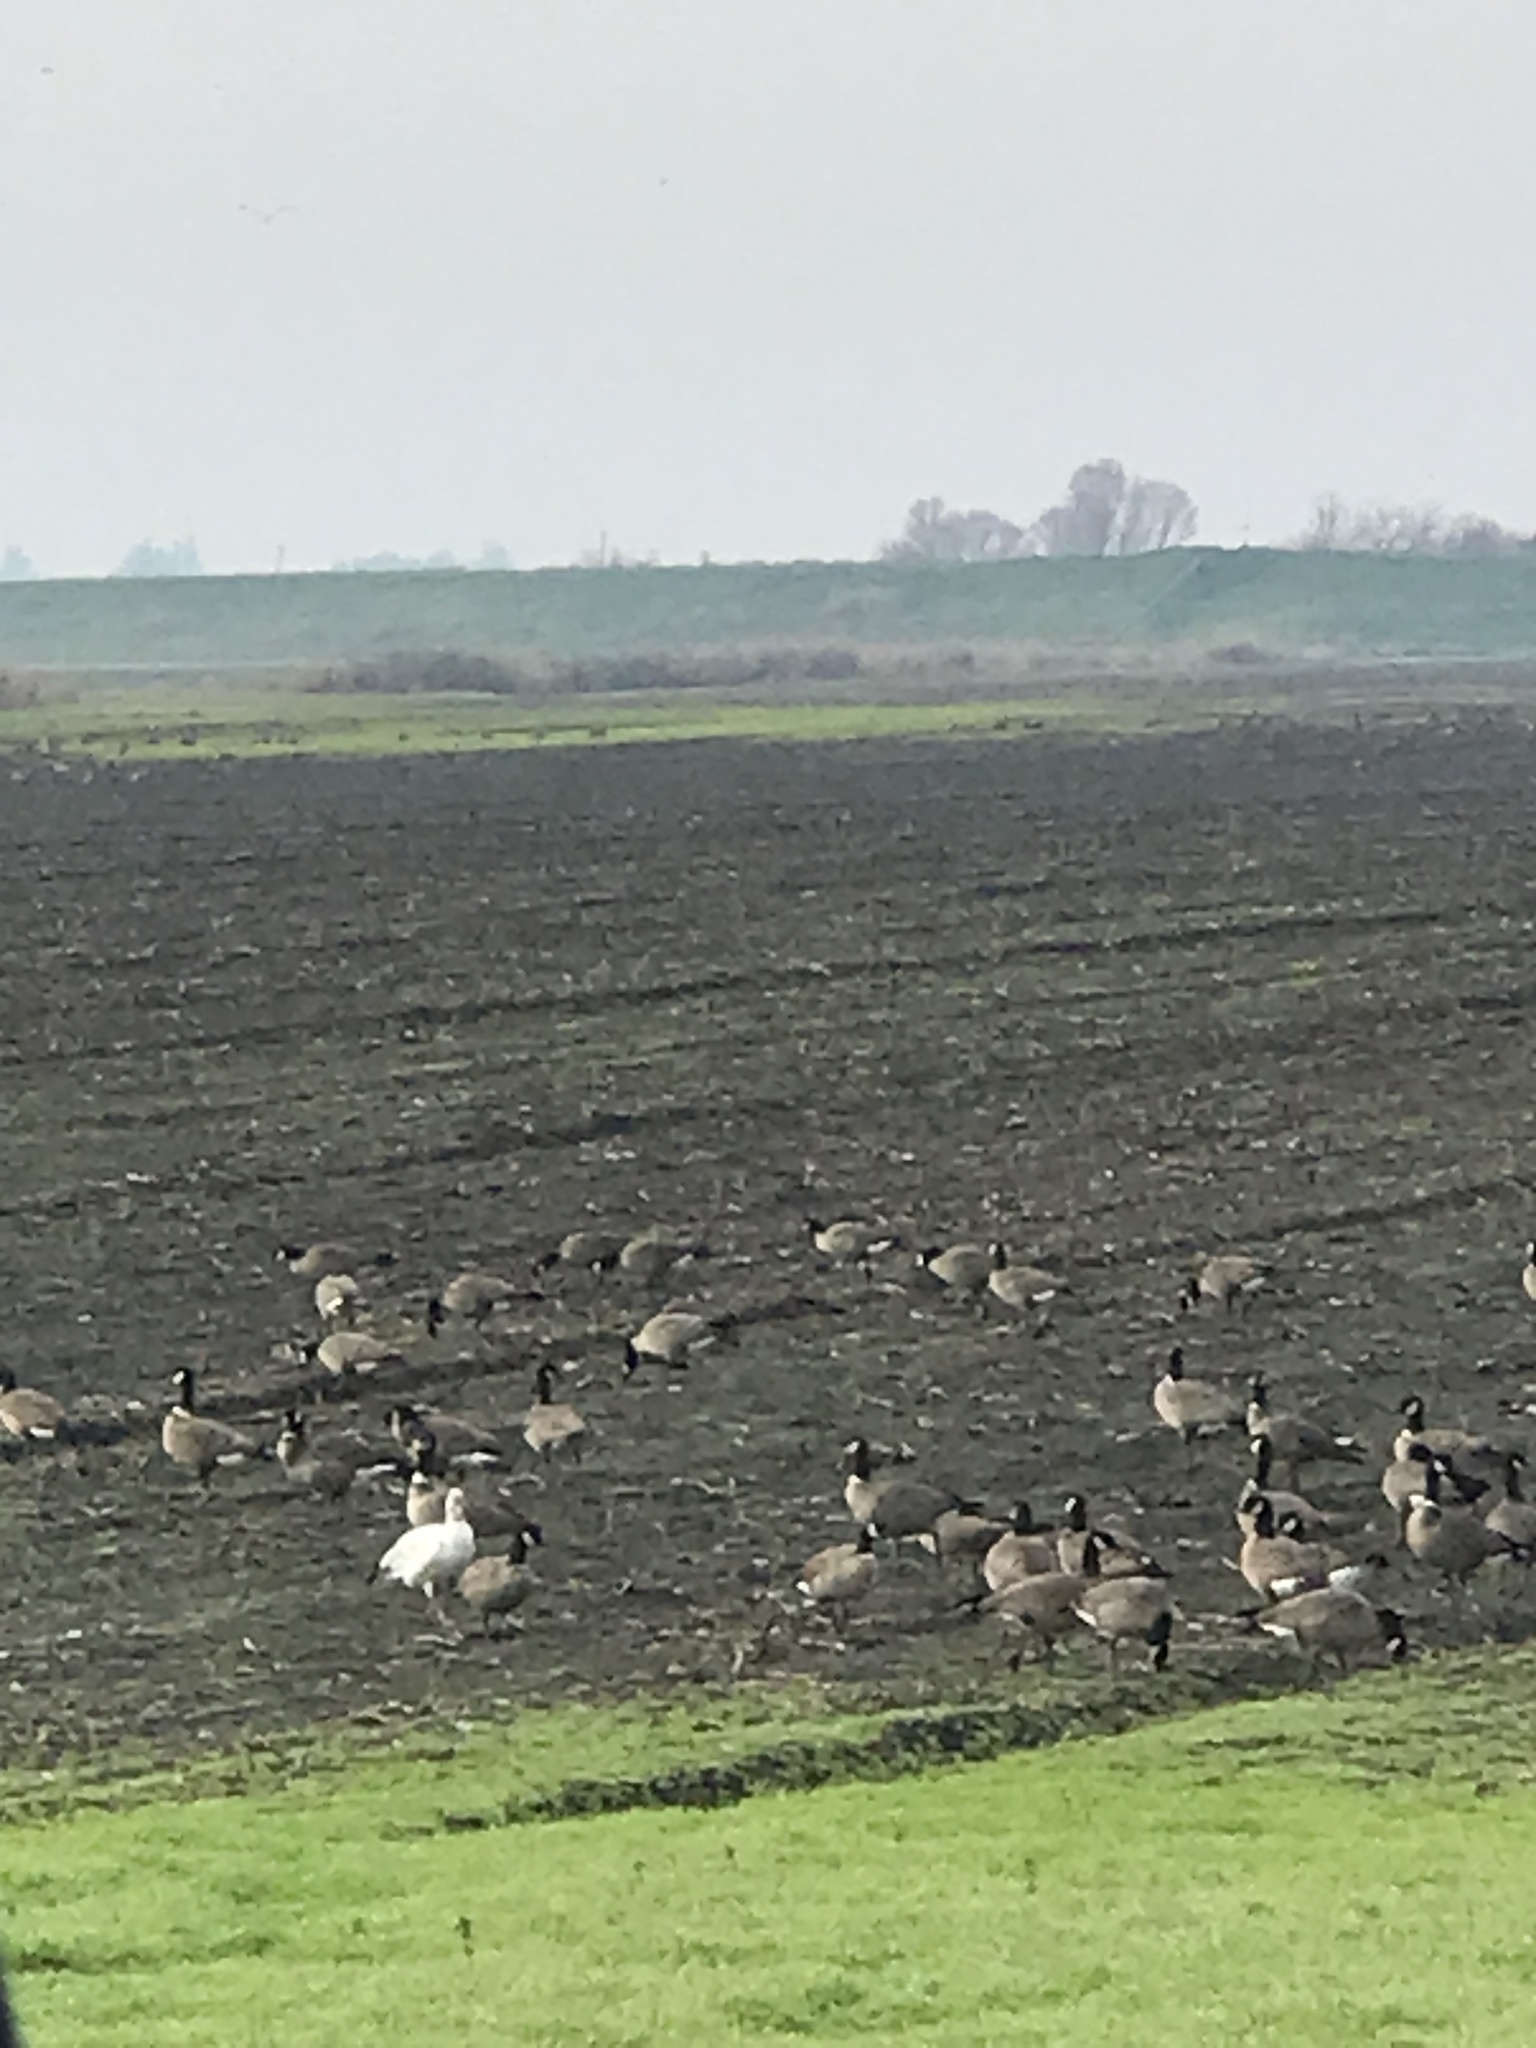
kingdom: Animalia
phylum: Chordata
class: Aves
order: Anseriformes
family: Anatidae
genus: Branta
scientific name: Branta hutchinsii
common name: Cackling goose
